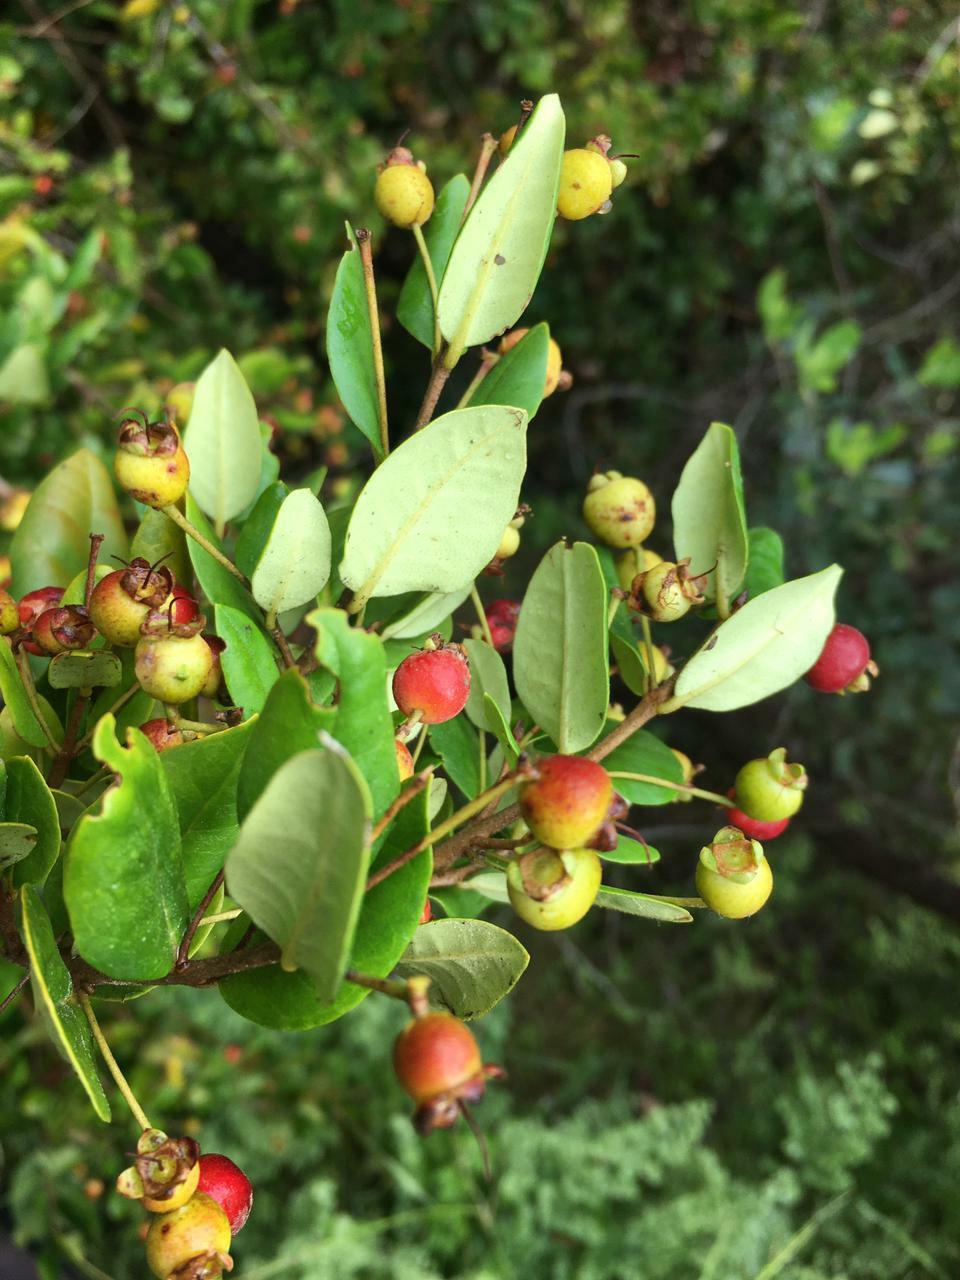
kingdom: Plantae
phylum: Tracheophyta
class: Magnoliopsida
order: Myrtales
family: Myrtaceae
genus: Myrceugenia
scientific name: Myrceugenia exsucca
